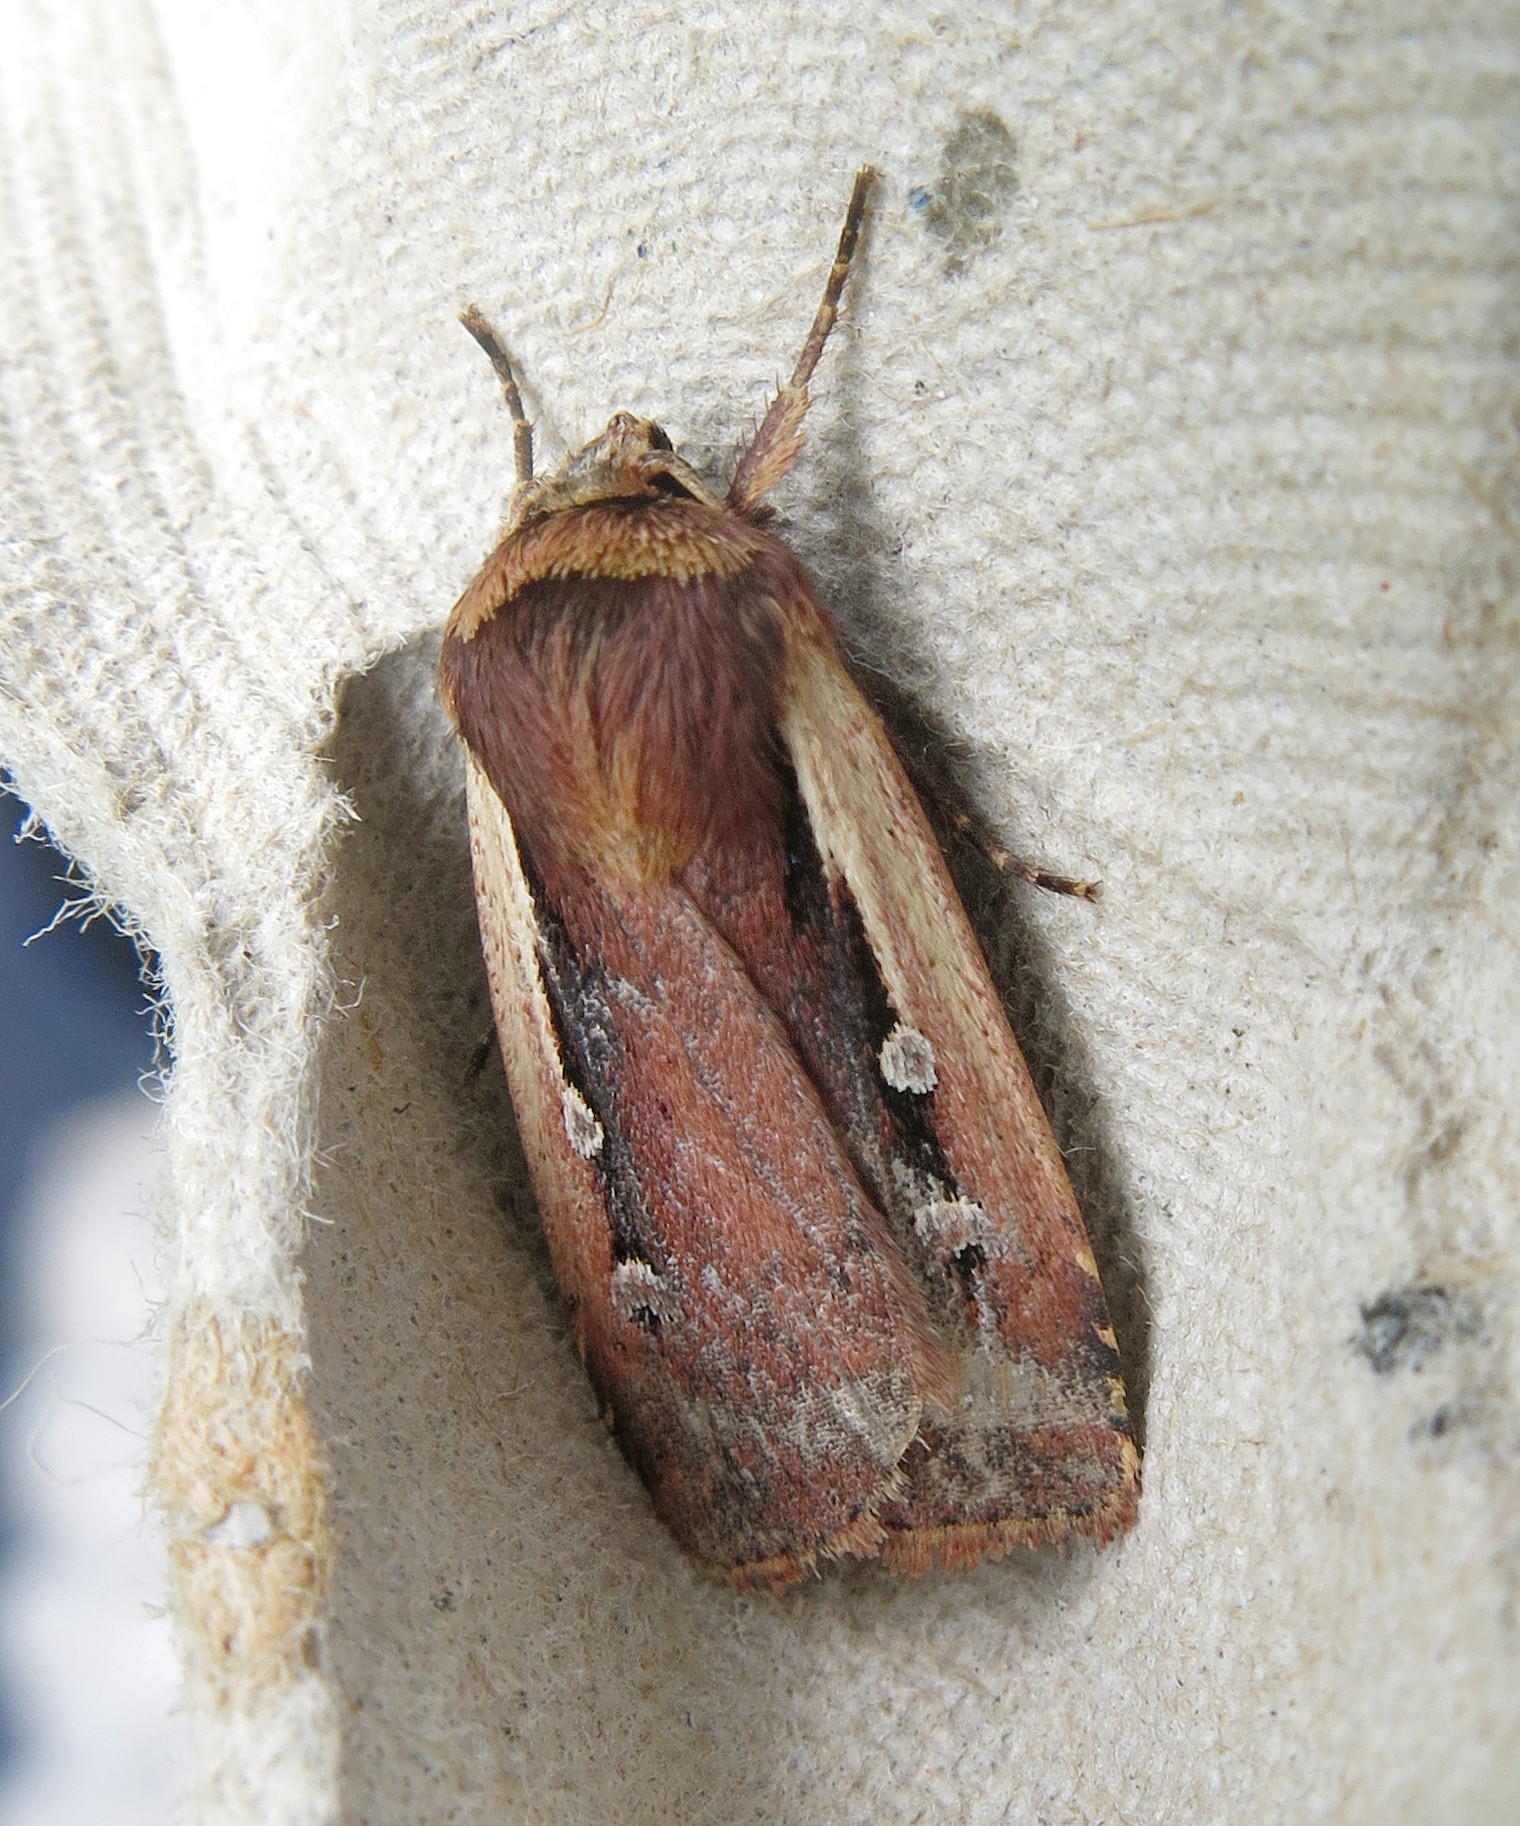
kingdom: Animalia
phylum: Arthropoda
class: Insecta
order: Lepidoptera
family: Noctuidae
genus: Ochropleura
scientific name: Ochropleura plecta
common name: Flame shoulder
